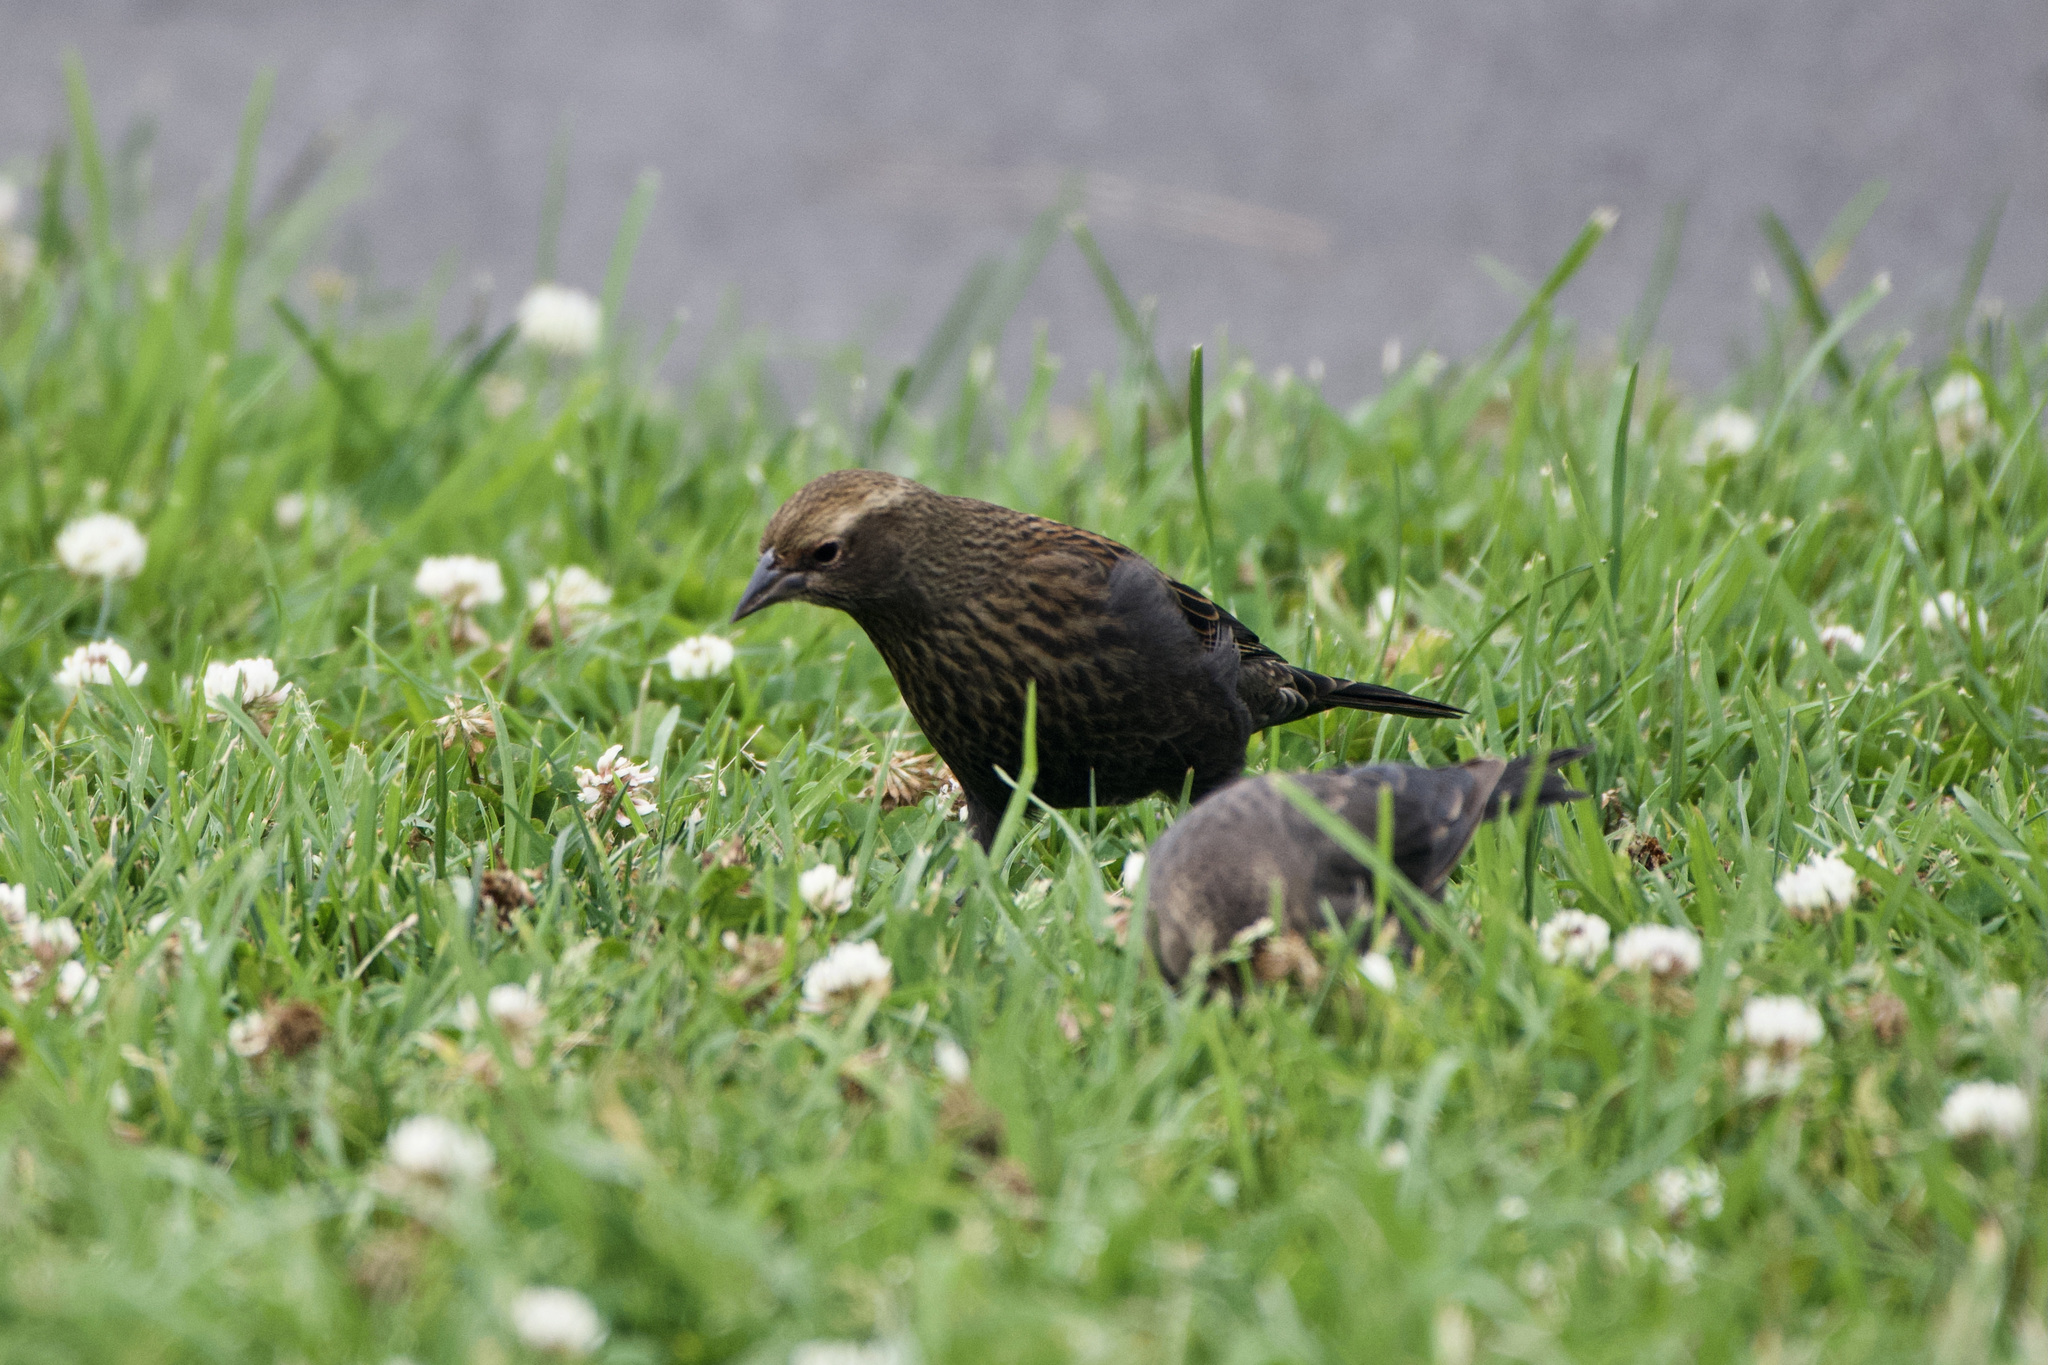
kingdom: Animalia
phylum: Chordata
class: Aves
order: Passeriformes
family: Icteridae
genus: Agelaius
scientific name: Agelaius phoeniceus
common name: Red-winged blackbird
